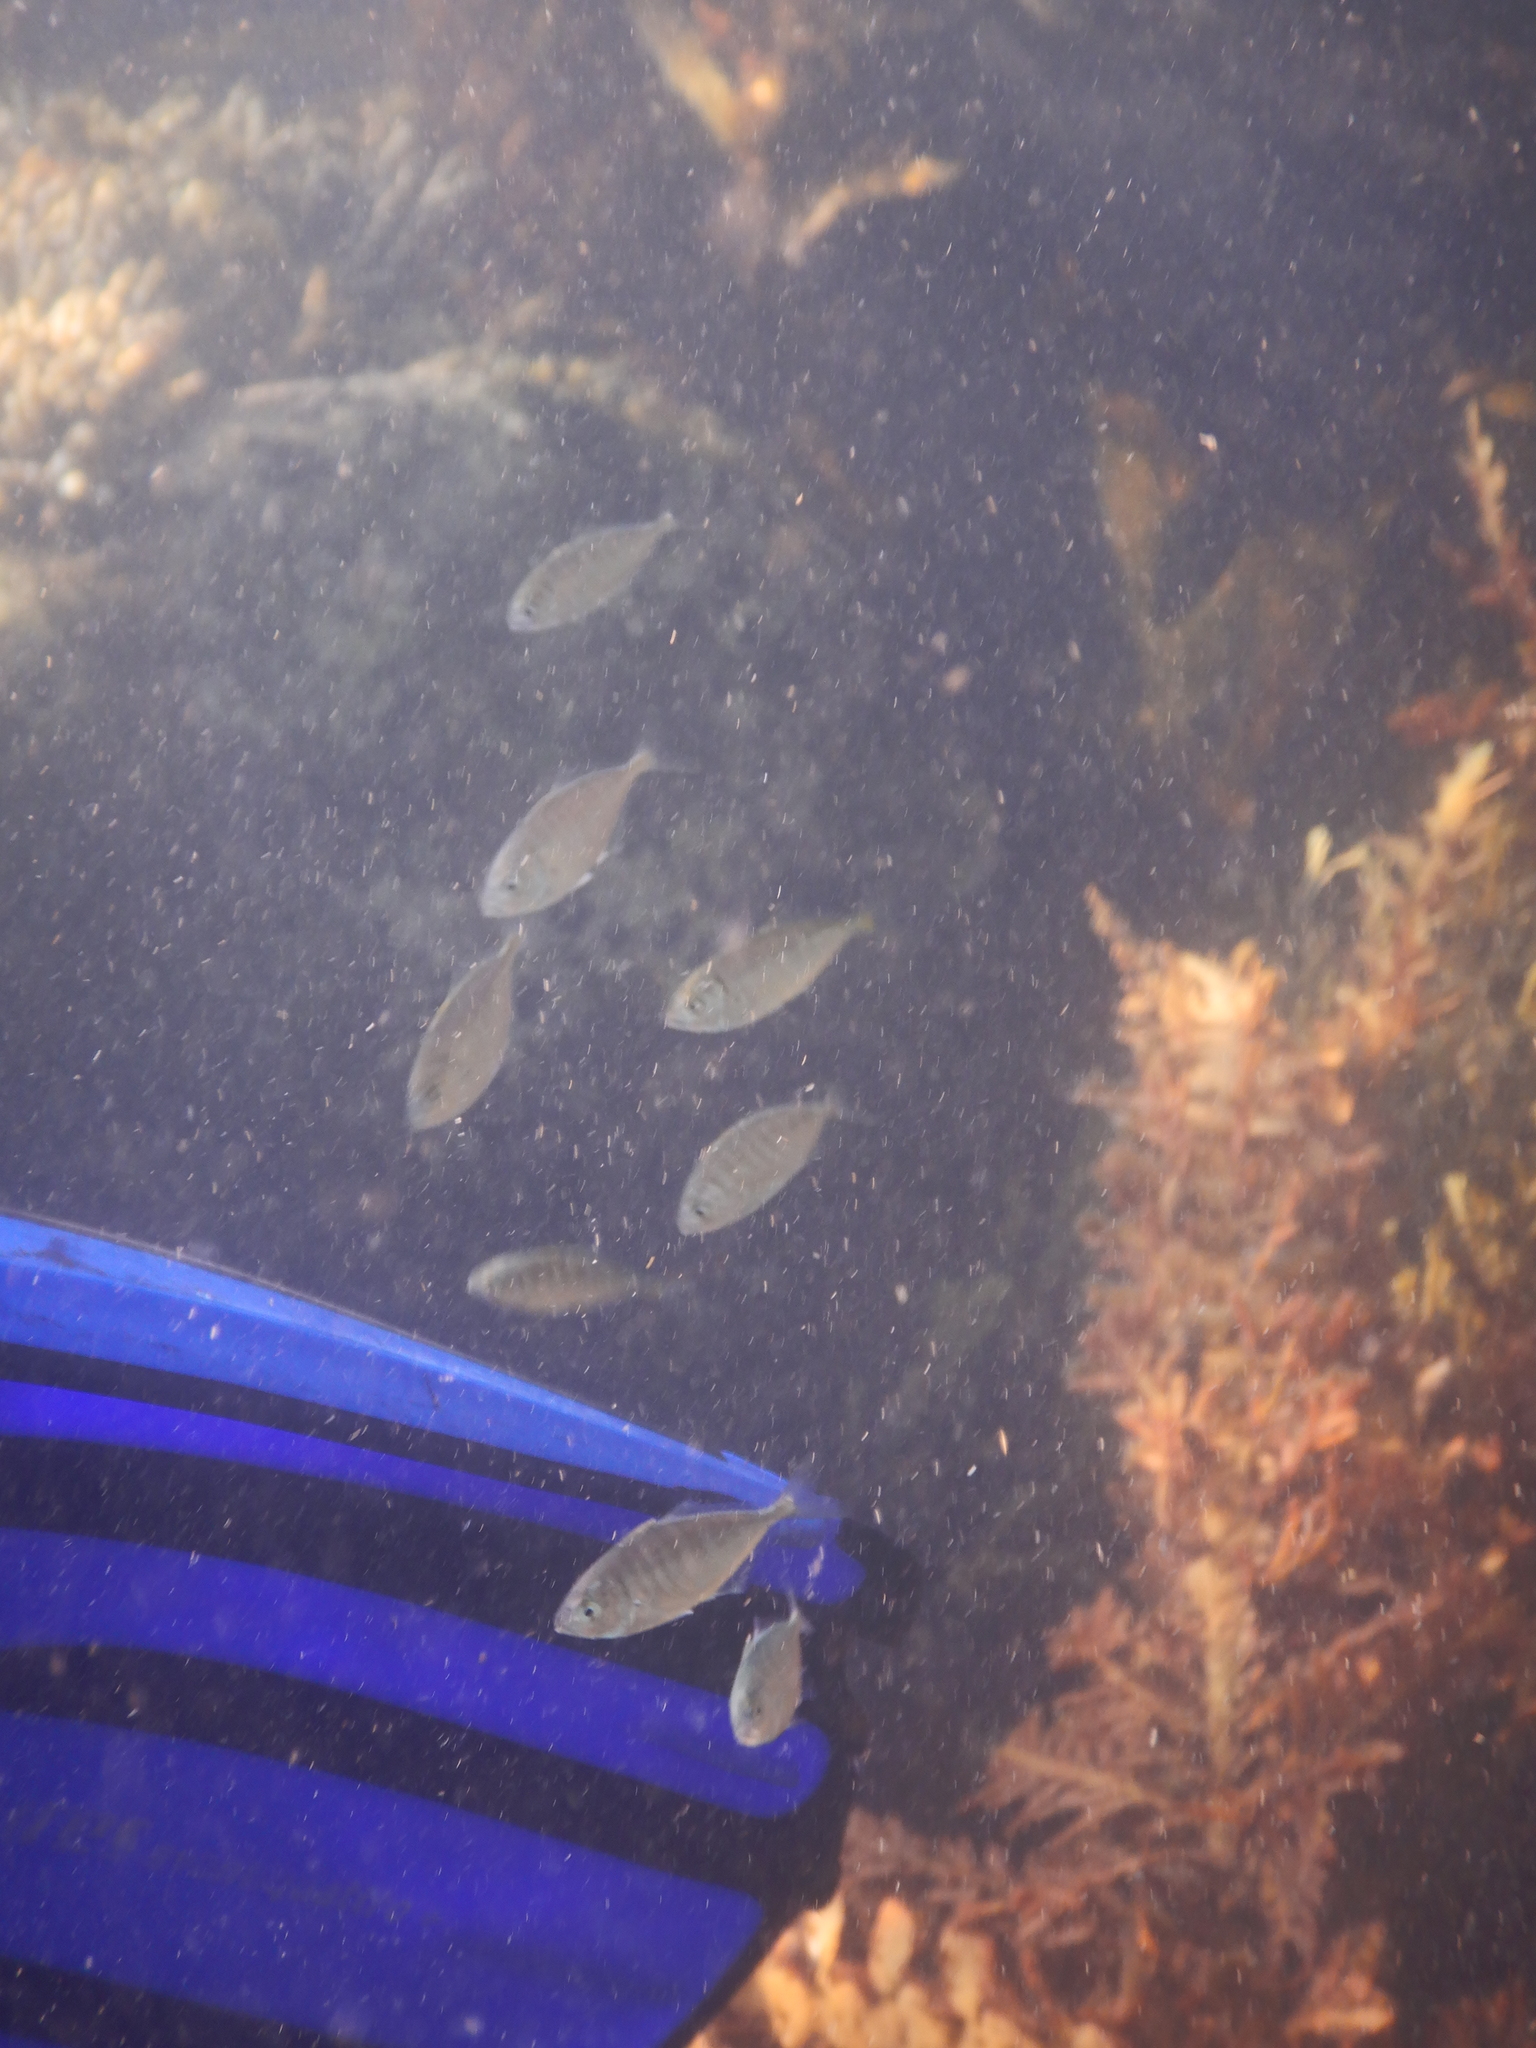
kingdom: Animalia
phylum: Chordata
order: Perciformes
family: Carangidae
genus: Pseudocaranx
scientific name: Pseudocaranx dentex
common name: White trevally
